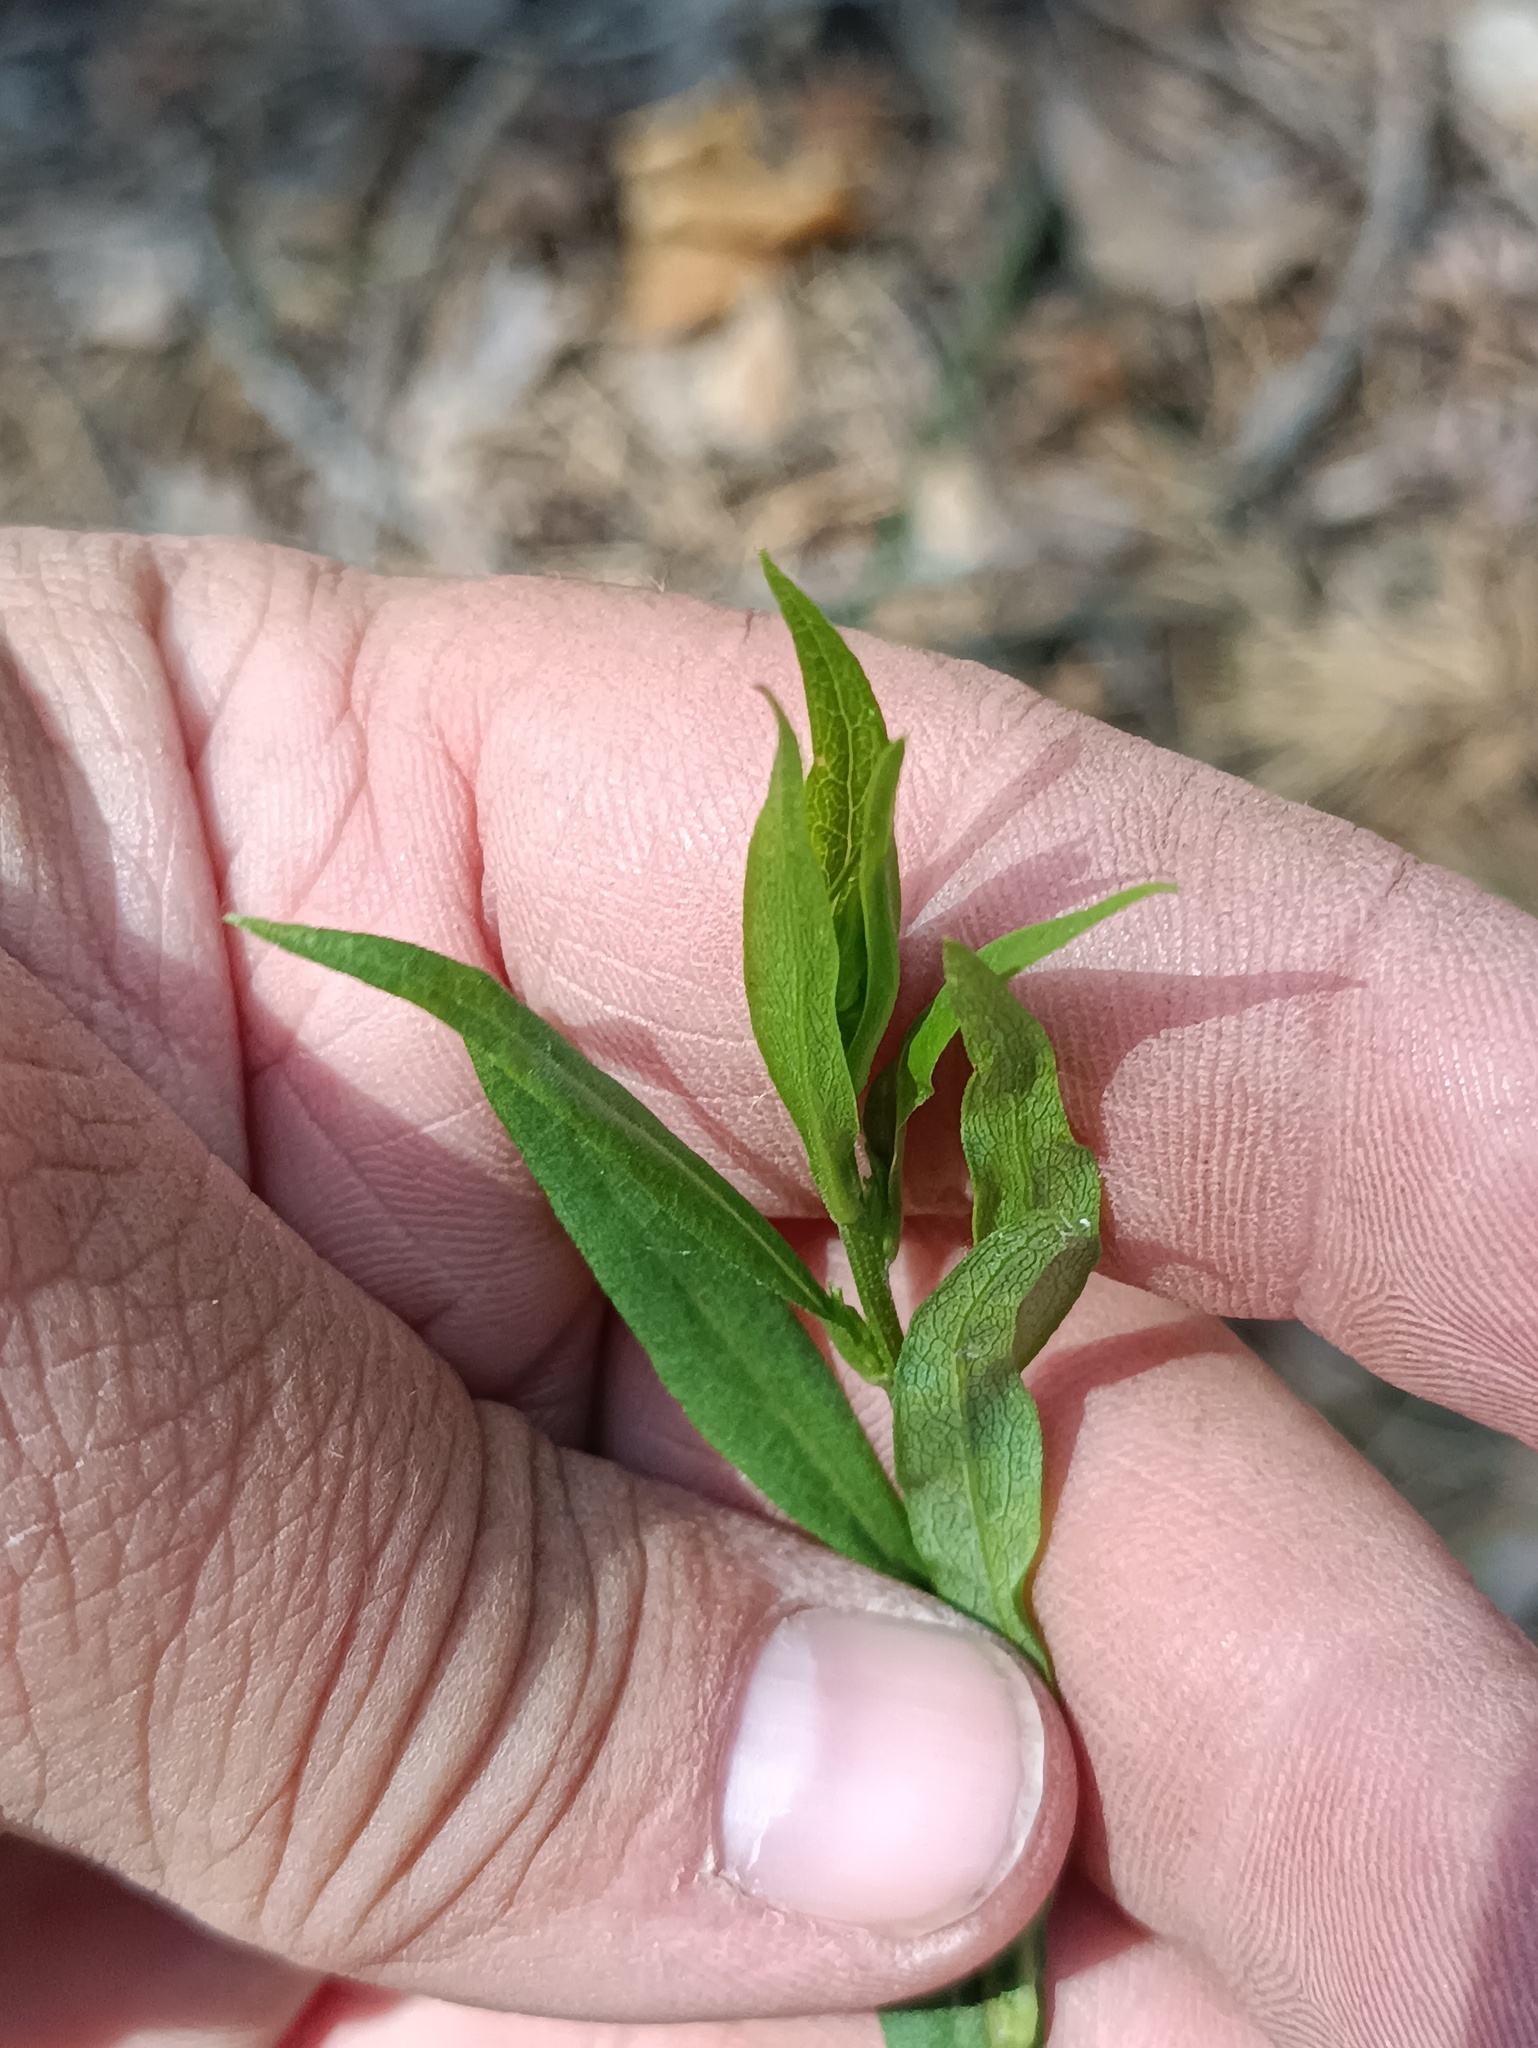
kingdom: Plantae
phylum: Tracheophyta
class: Magnoliopsida
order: Asterales
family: Asteraceae
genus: Solidago
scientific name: Solidago virgaurea
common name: Goldenrod
